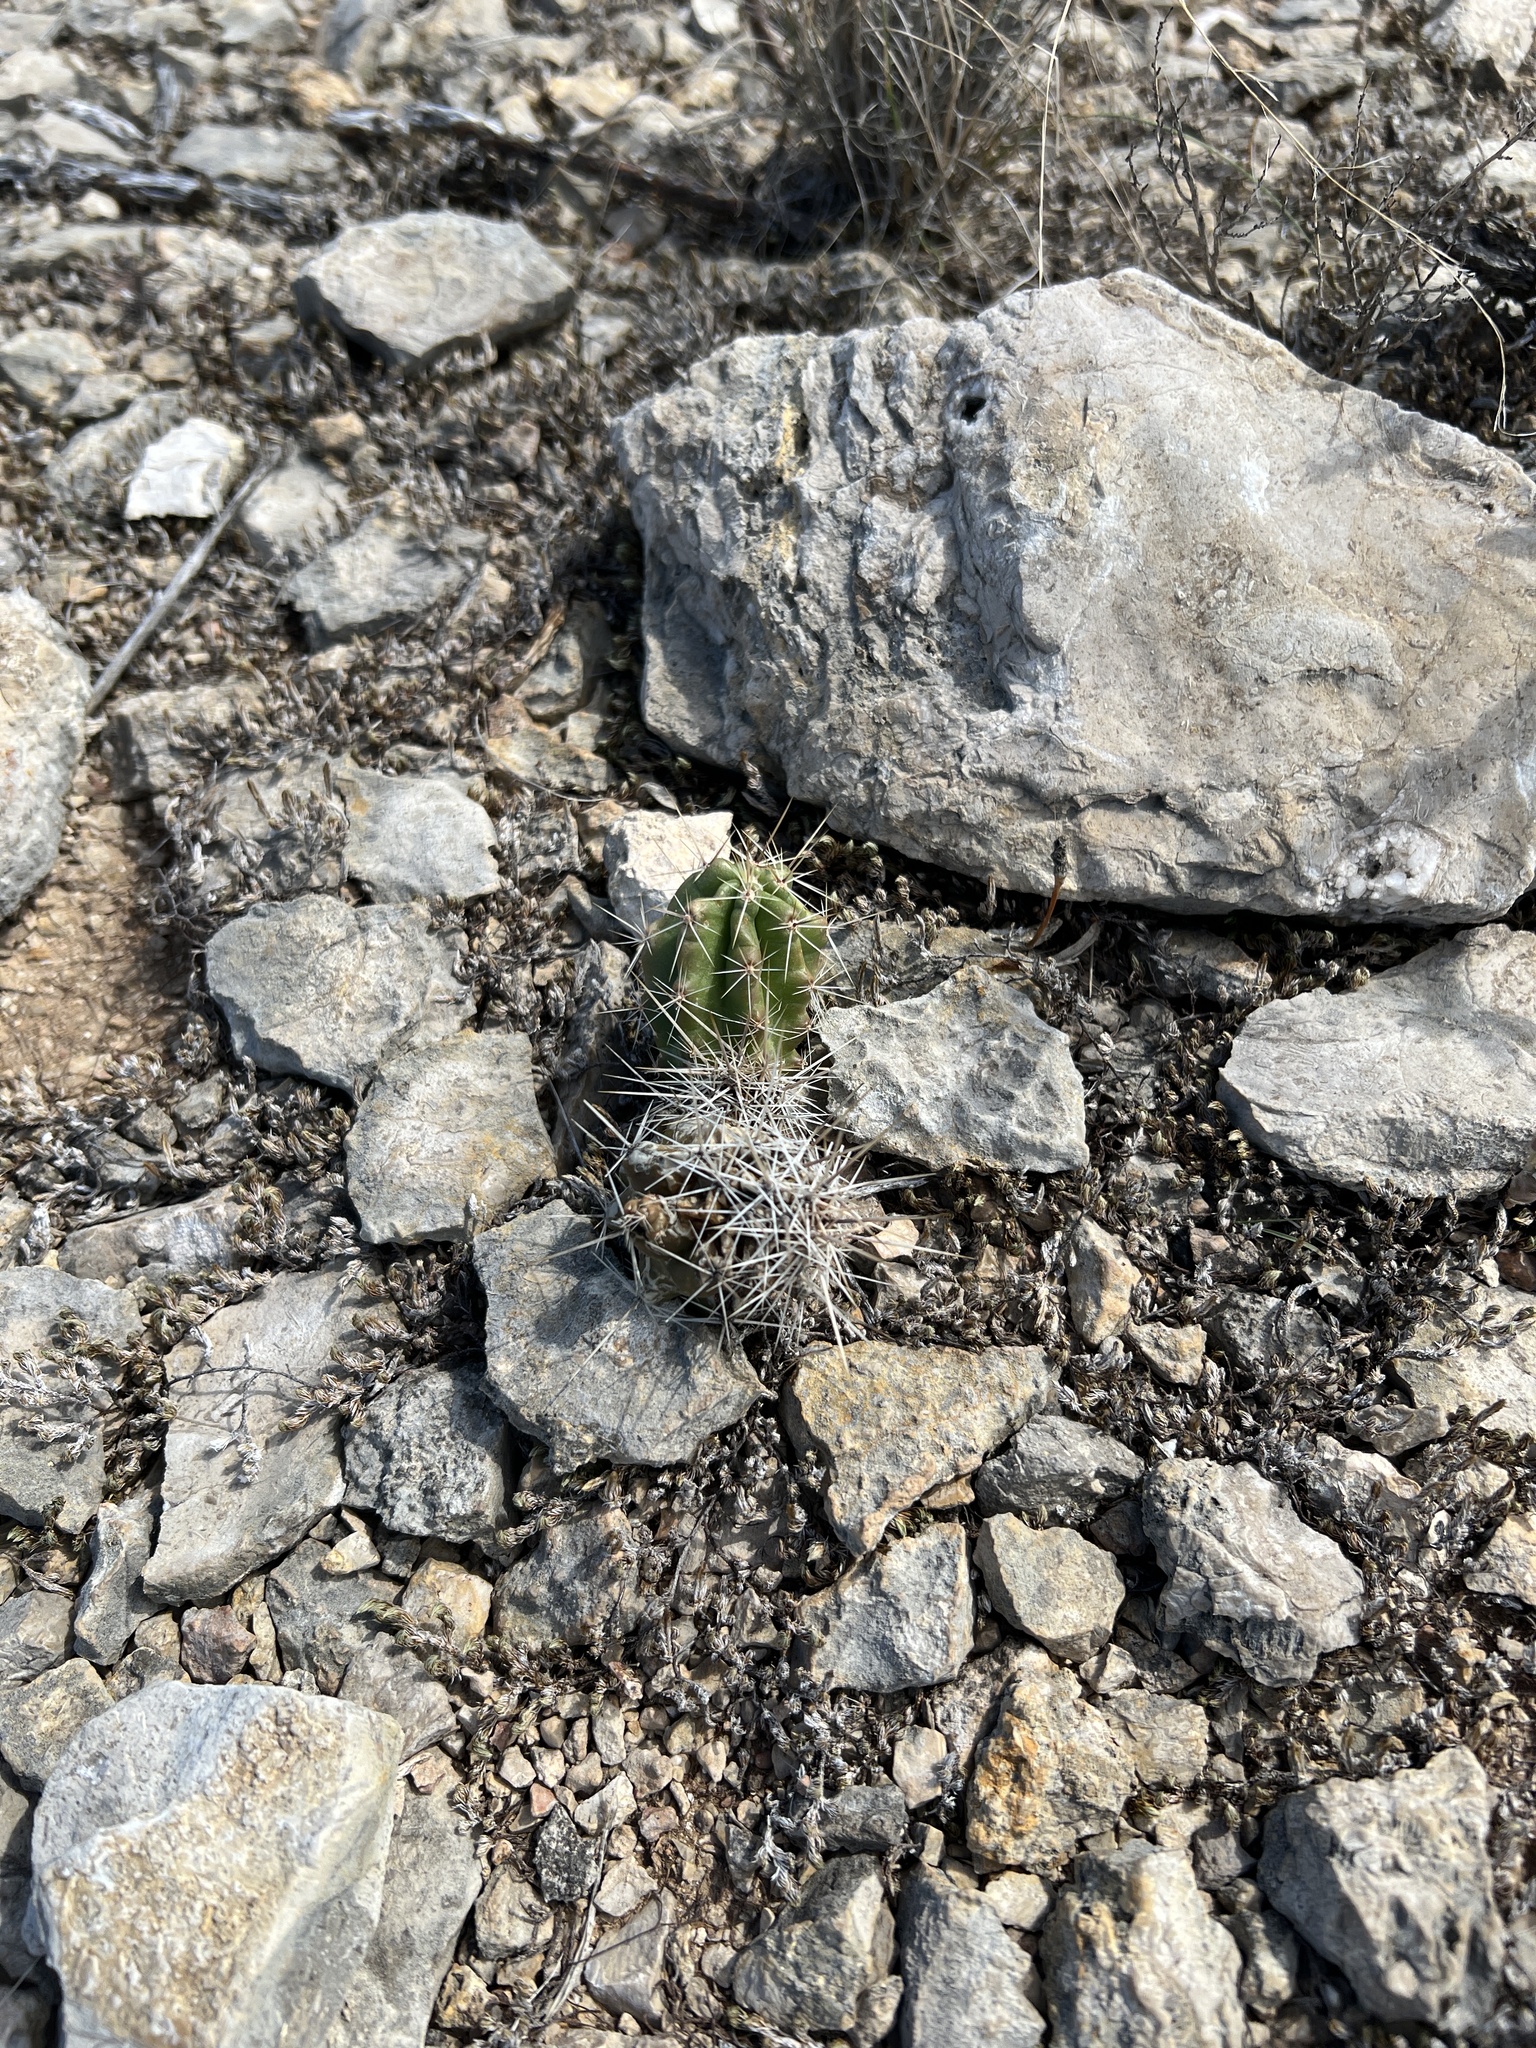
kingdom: Plantae
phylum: Tracheophyta
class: Magnoliopsida
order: Caryophyllales
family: Cactaceae
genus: Echinocereus
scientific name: Echinocereus enneacanthus
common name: Pitaya
